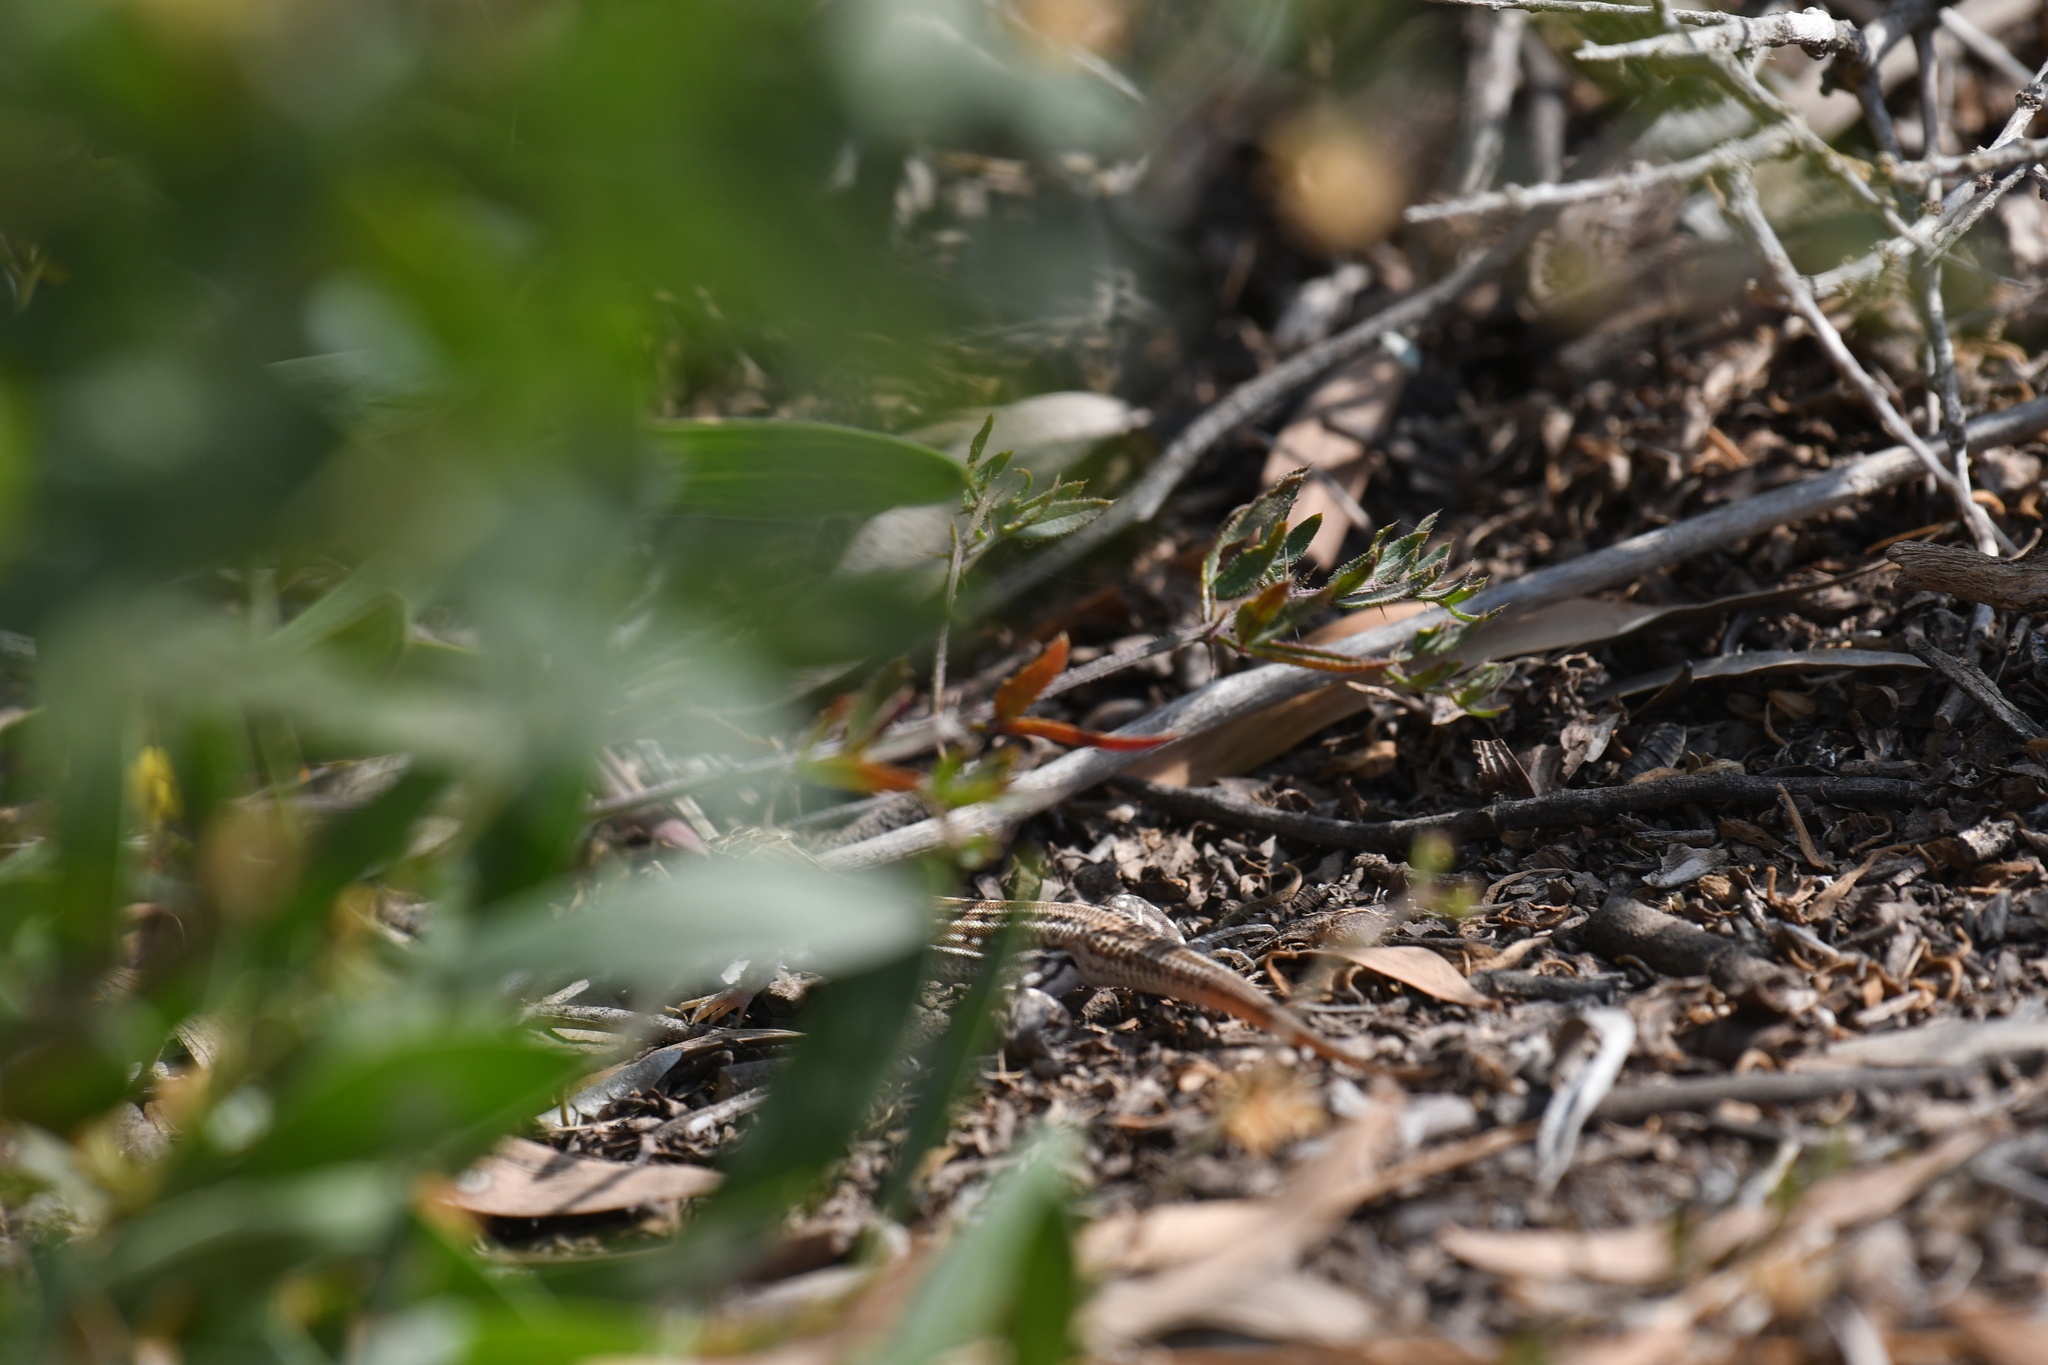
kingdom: Animalia
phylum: Chordata
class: Squamata
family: Lacertidae
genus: Acanthodactylus
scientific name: Acanthodactylus margaritae
